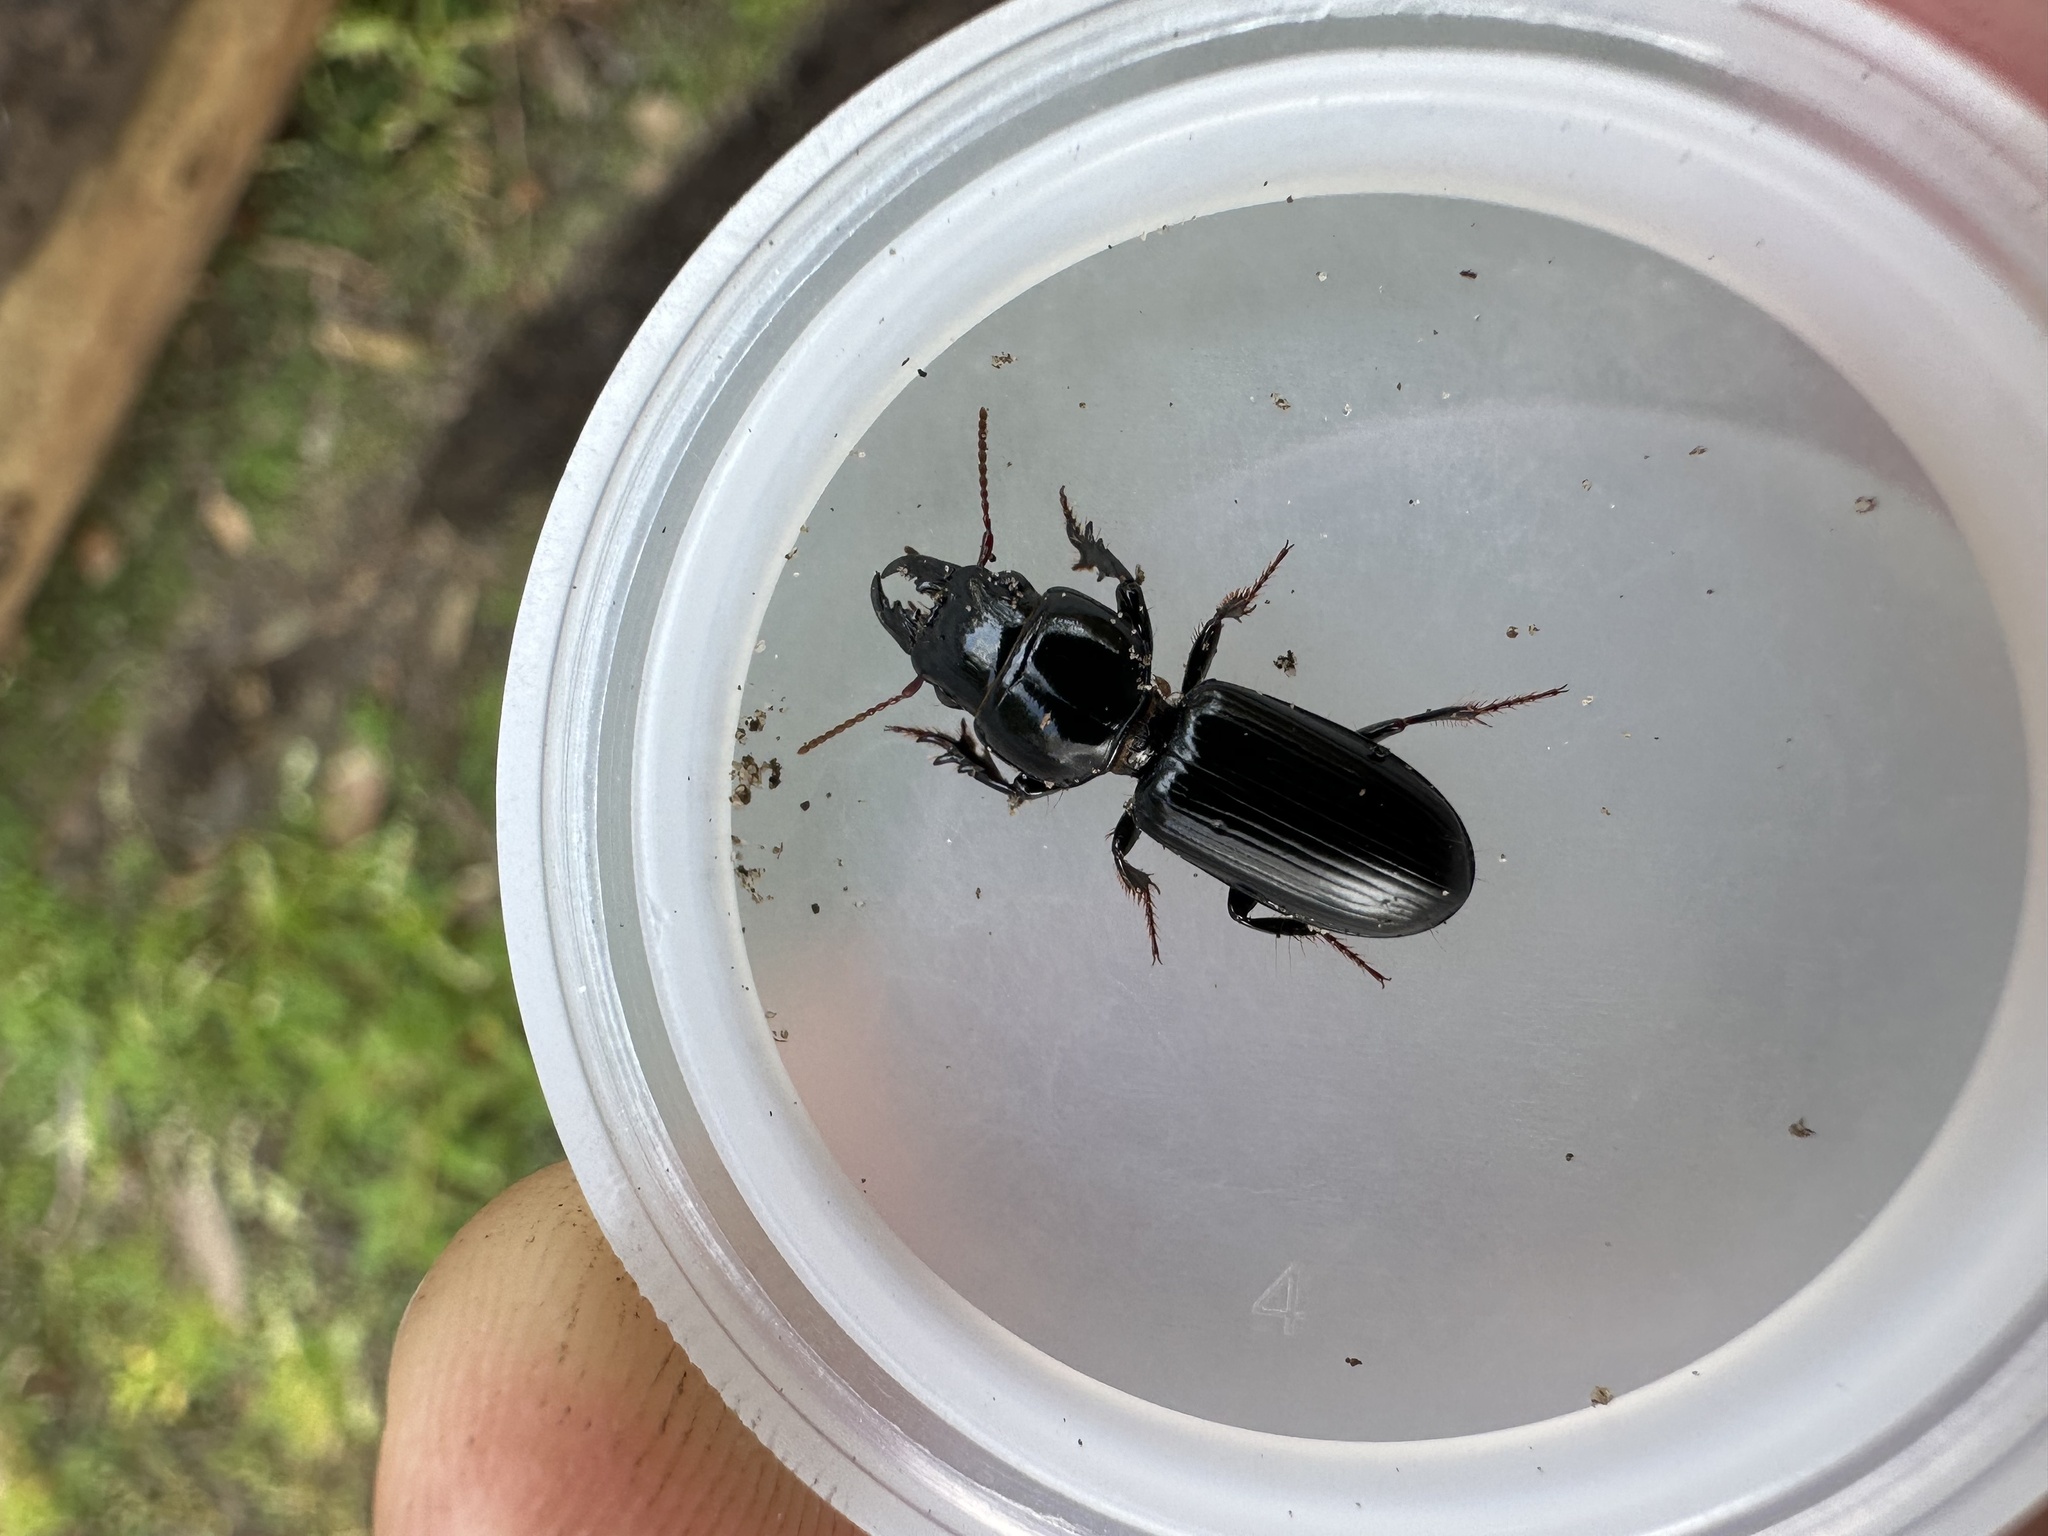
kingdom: Animalia
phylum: Arthropoda
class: Insecta
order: Coleoptera
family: Carabidae
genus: Scarites
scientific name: Scarites subterraneus
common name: Big-headed ground beetle
